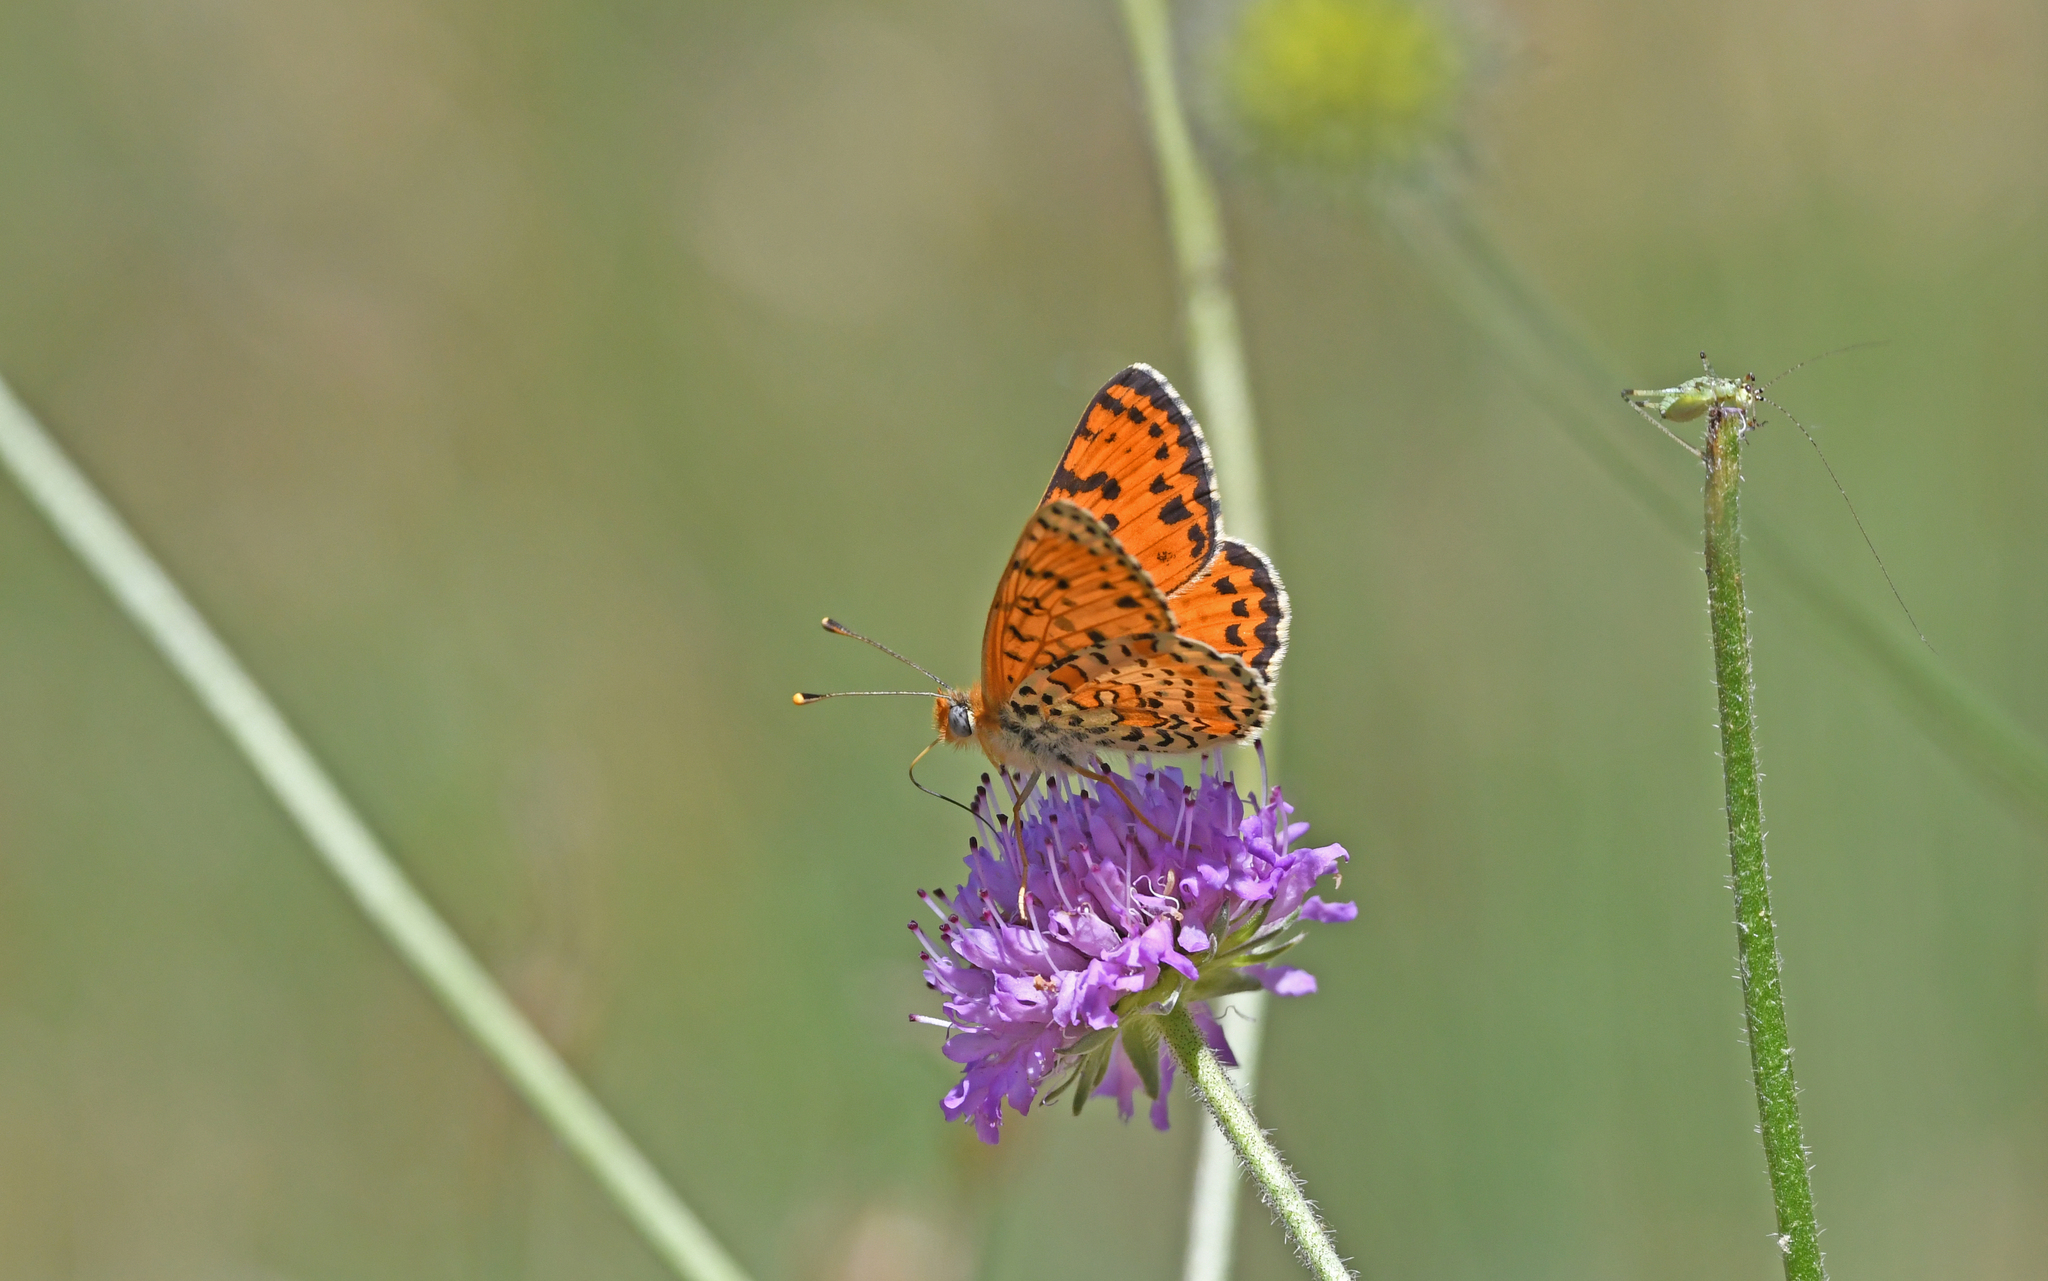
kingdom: Animalia
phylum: Arthropoda
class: Insecta
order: Lepidoptera
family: Nymphalidae
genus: Melitaea
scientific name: Melitaea didyma
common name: Spotted fritillary
